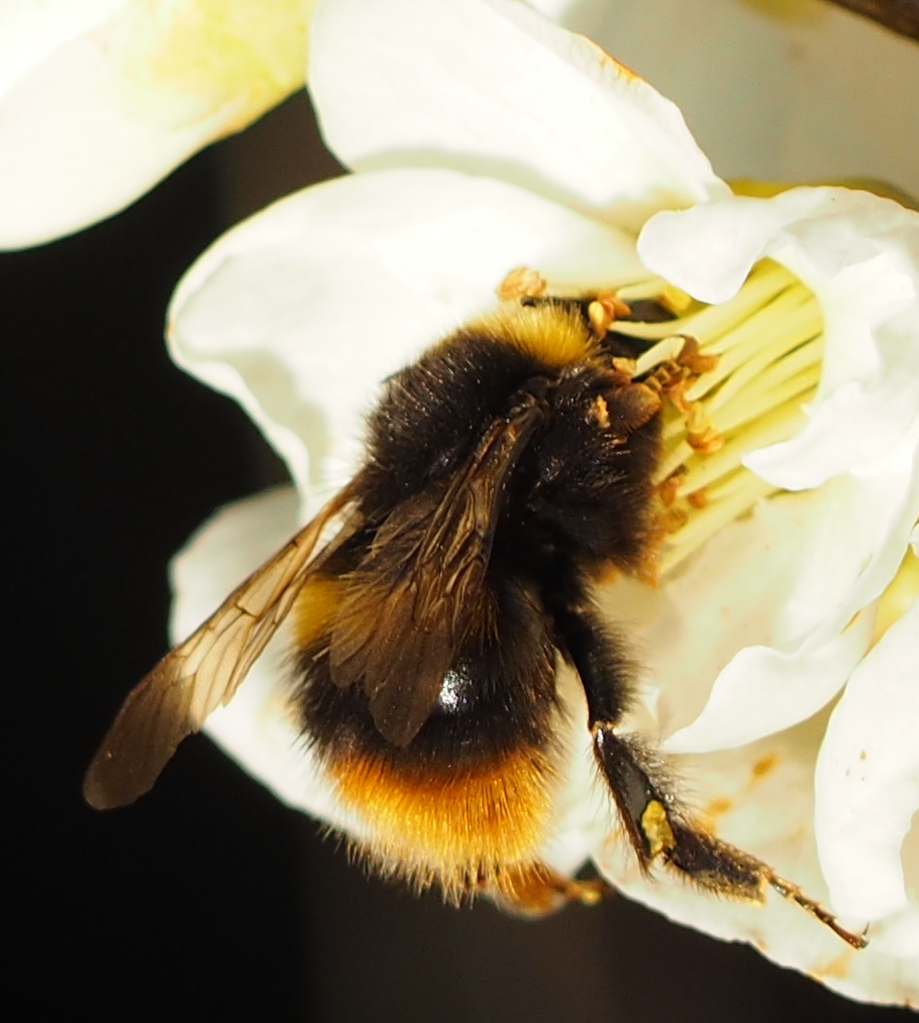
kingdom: Animalia
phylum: Arthropoda
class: Insecta
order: Hymenoptera
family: Apidae
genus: Bombus
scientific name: Bombus pratorum
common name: Early humble-bee
